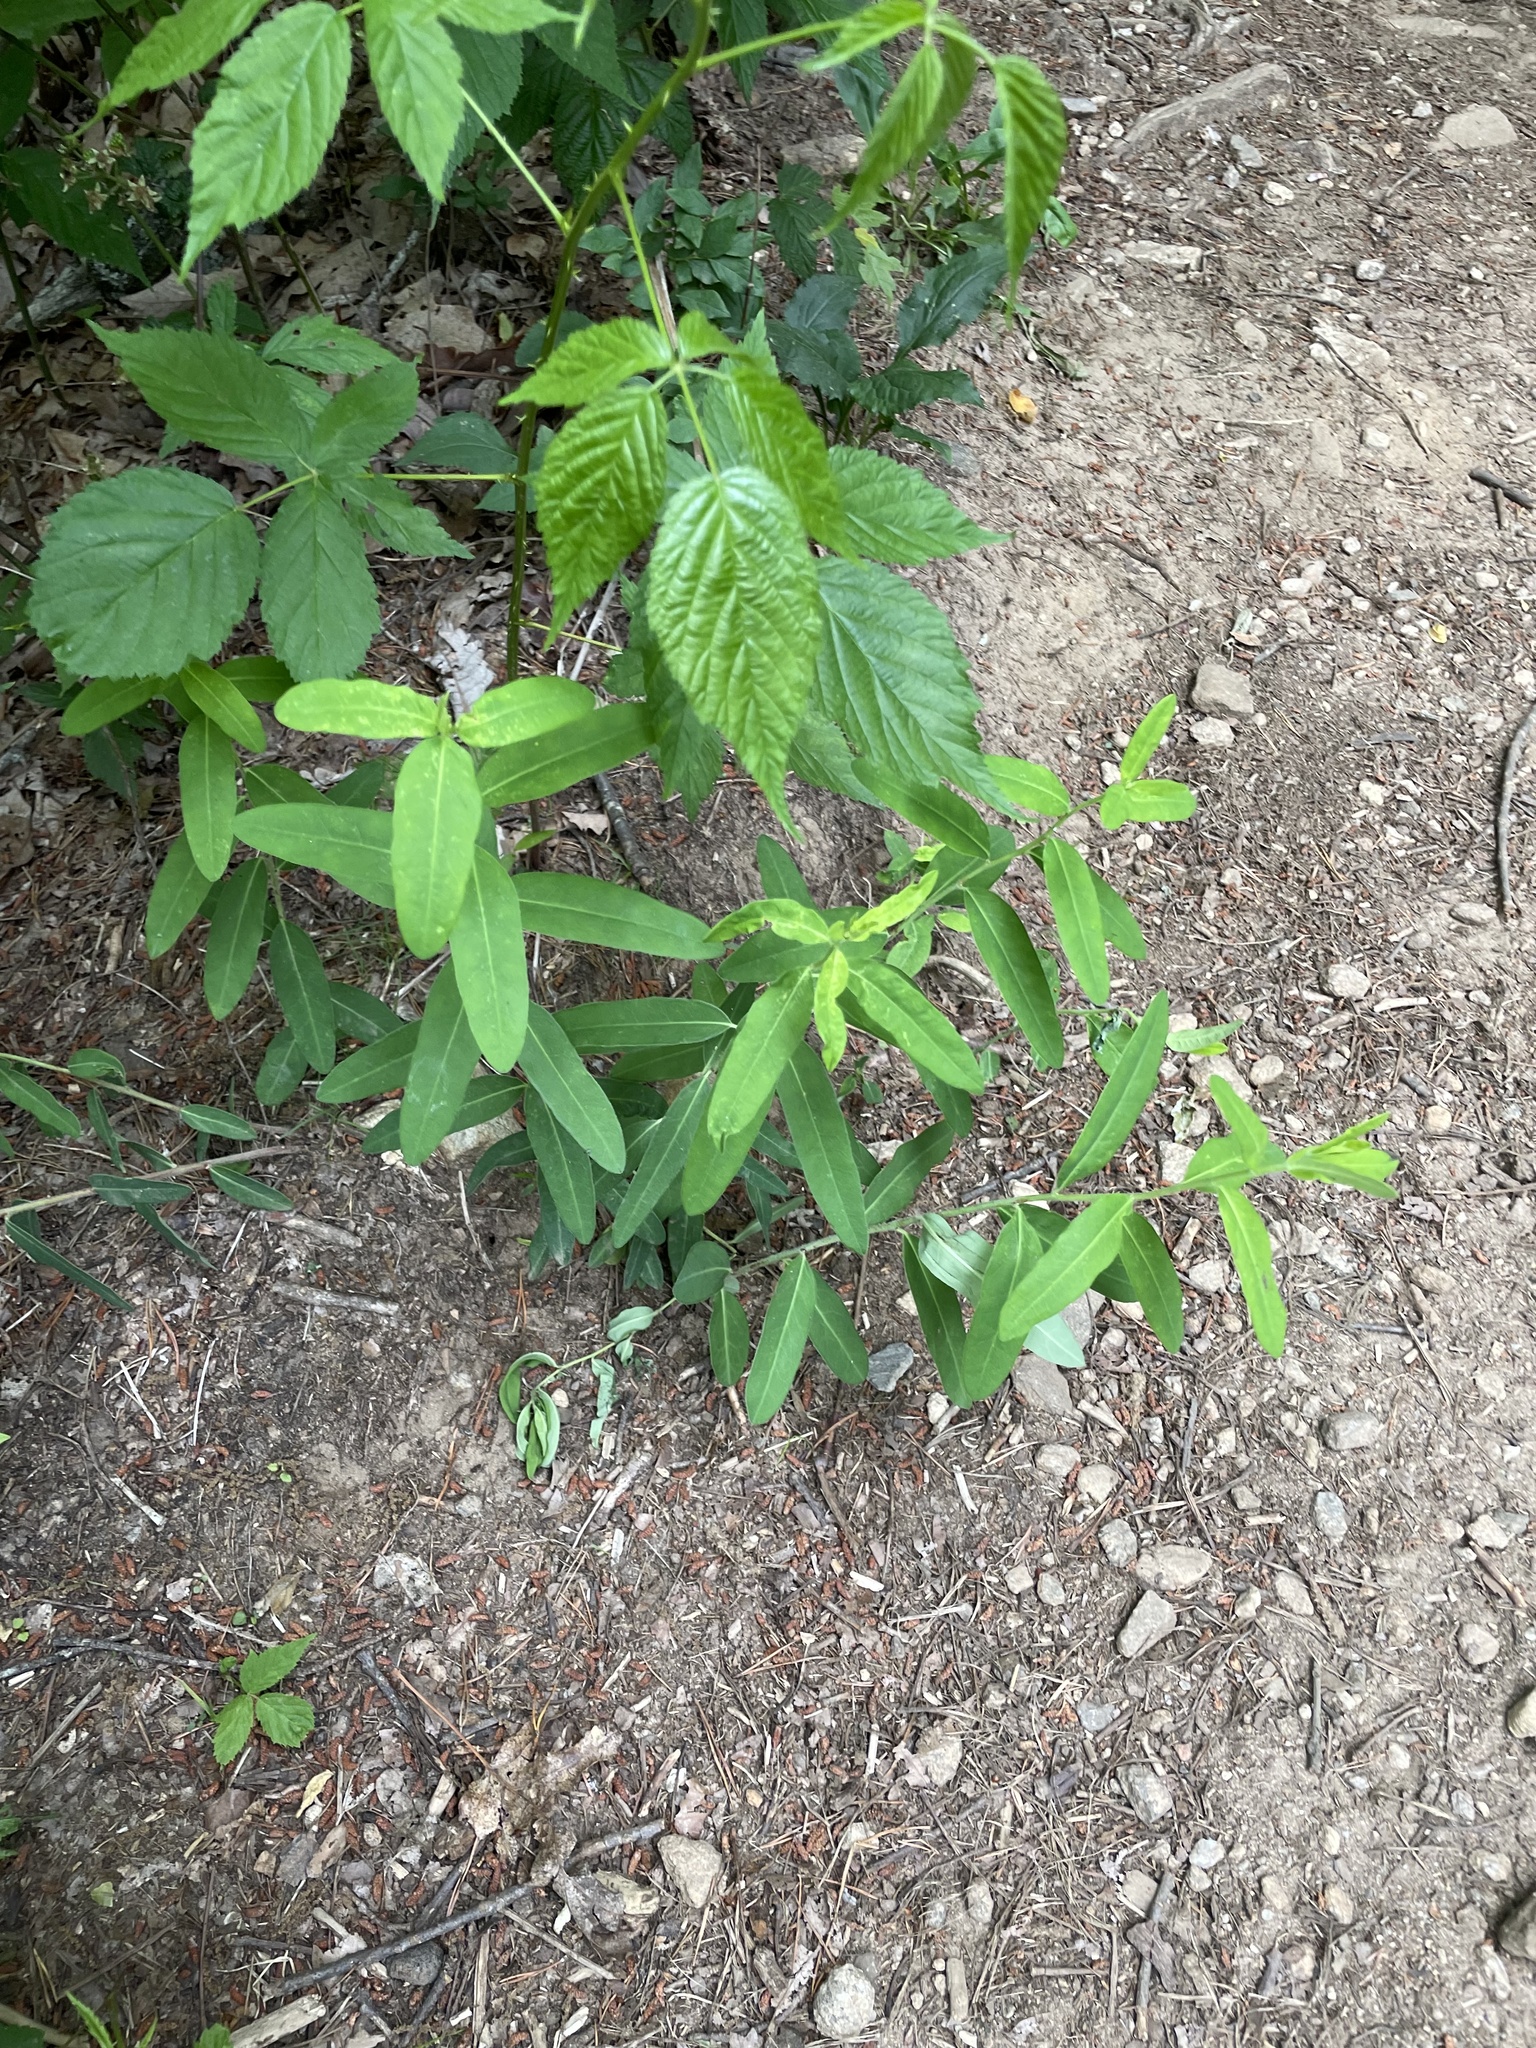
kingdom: Plantae
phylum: Tracheophyta
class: Magnoliopsida
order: Malpighiales
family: Euphorbiaceae
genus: Euphorbia
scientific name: Euphorbia pubentissima
